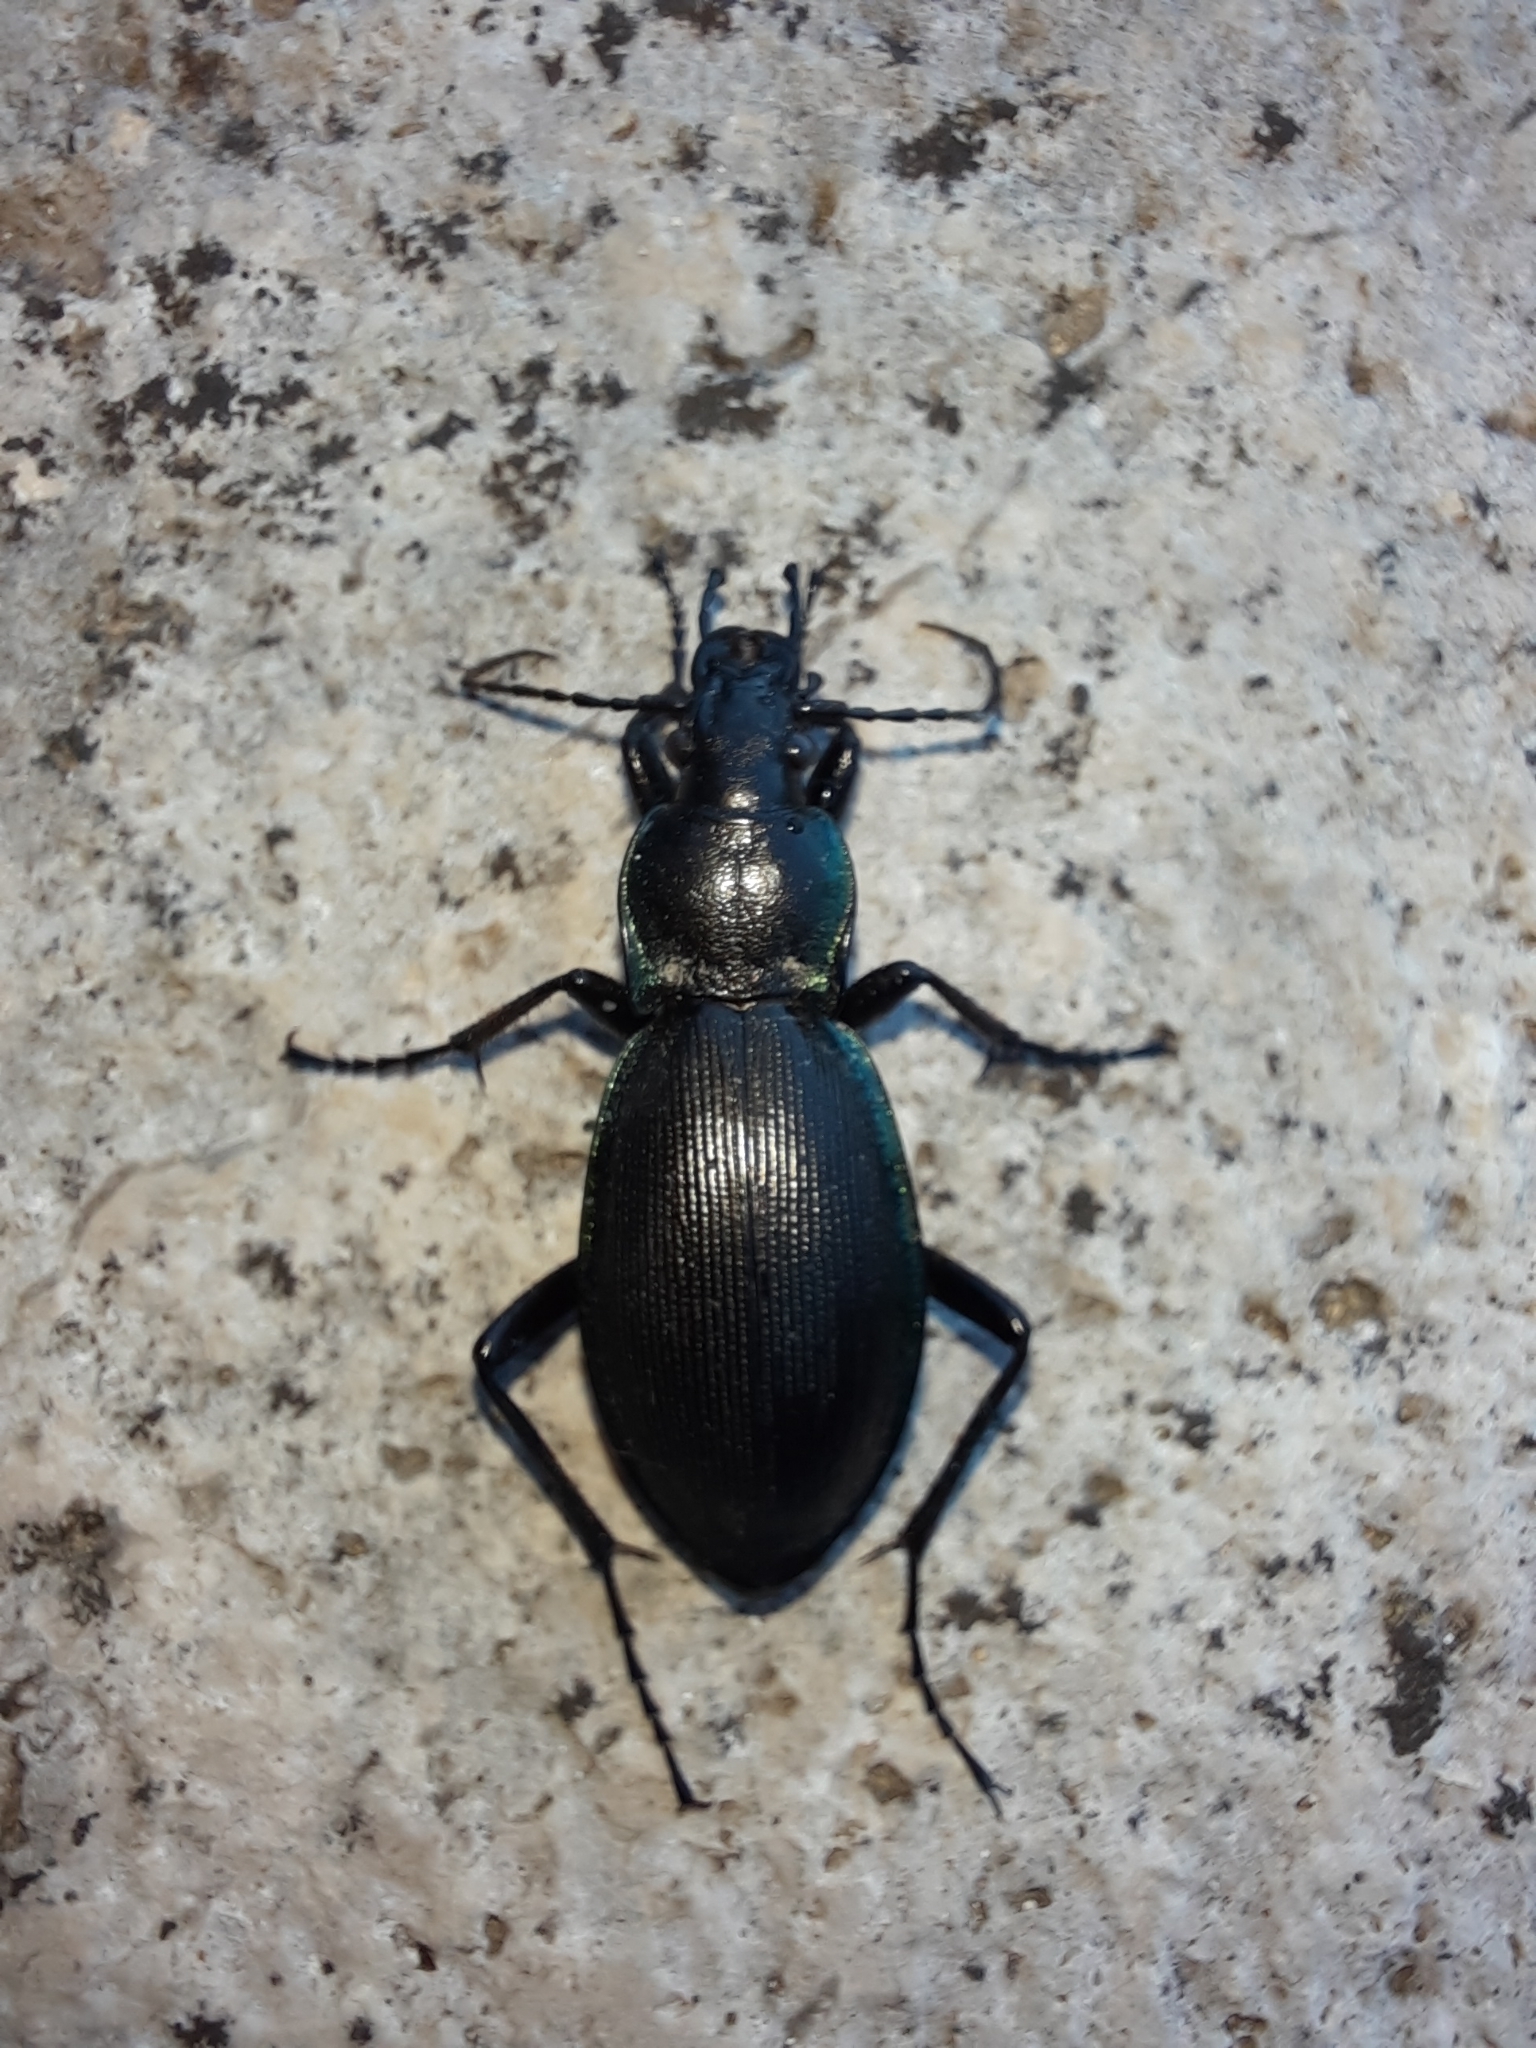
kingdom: Animalia
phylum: Arthropoda
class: Insecta
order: Coleoptera
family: Carabidae
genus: Carabus
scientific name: Carabus purpurascens
